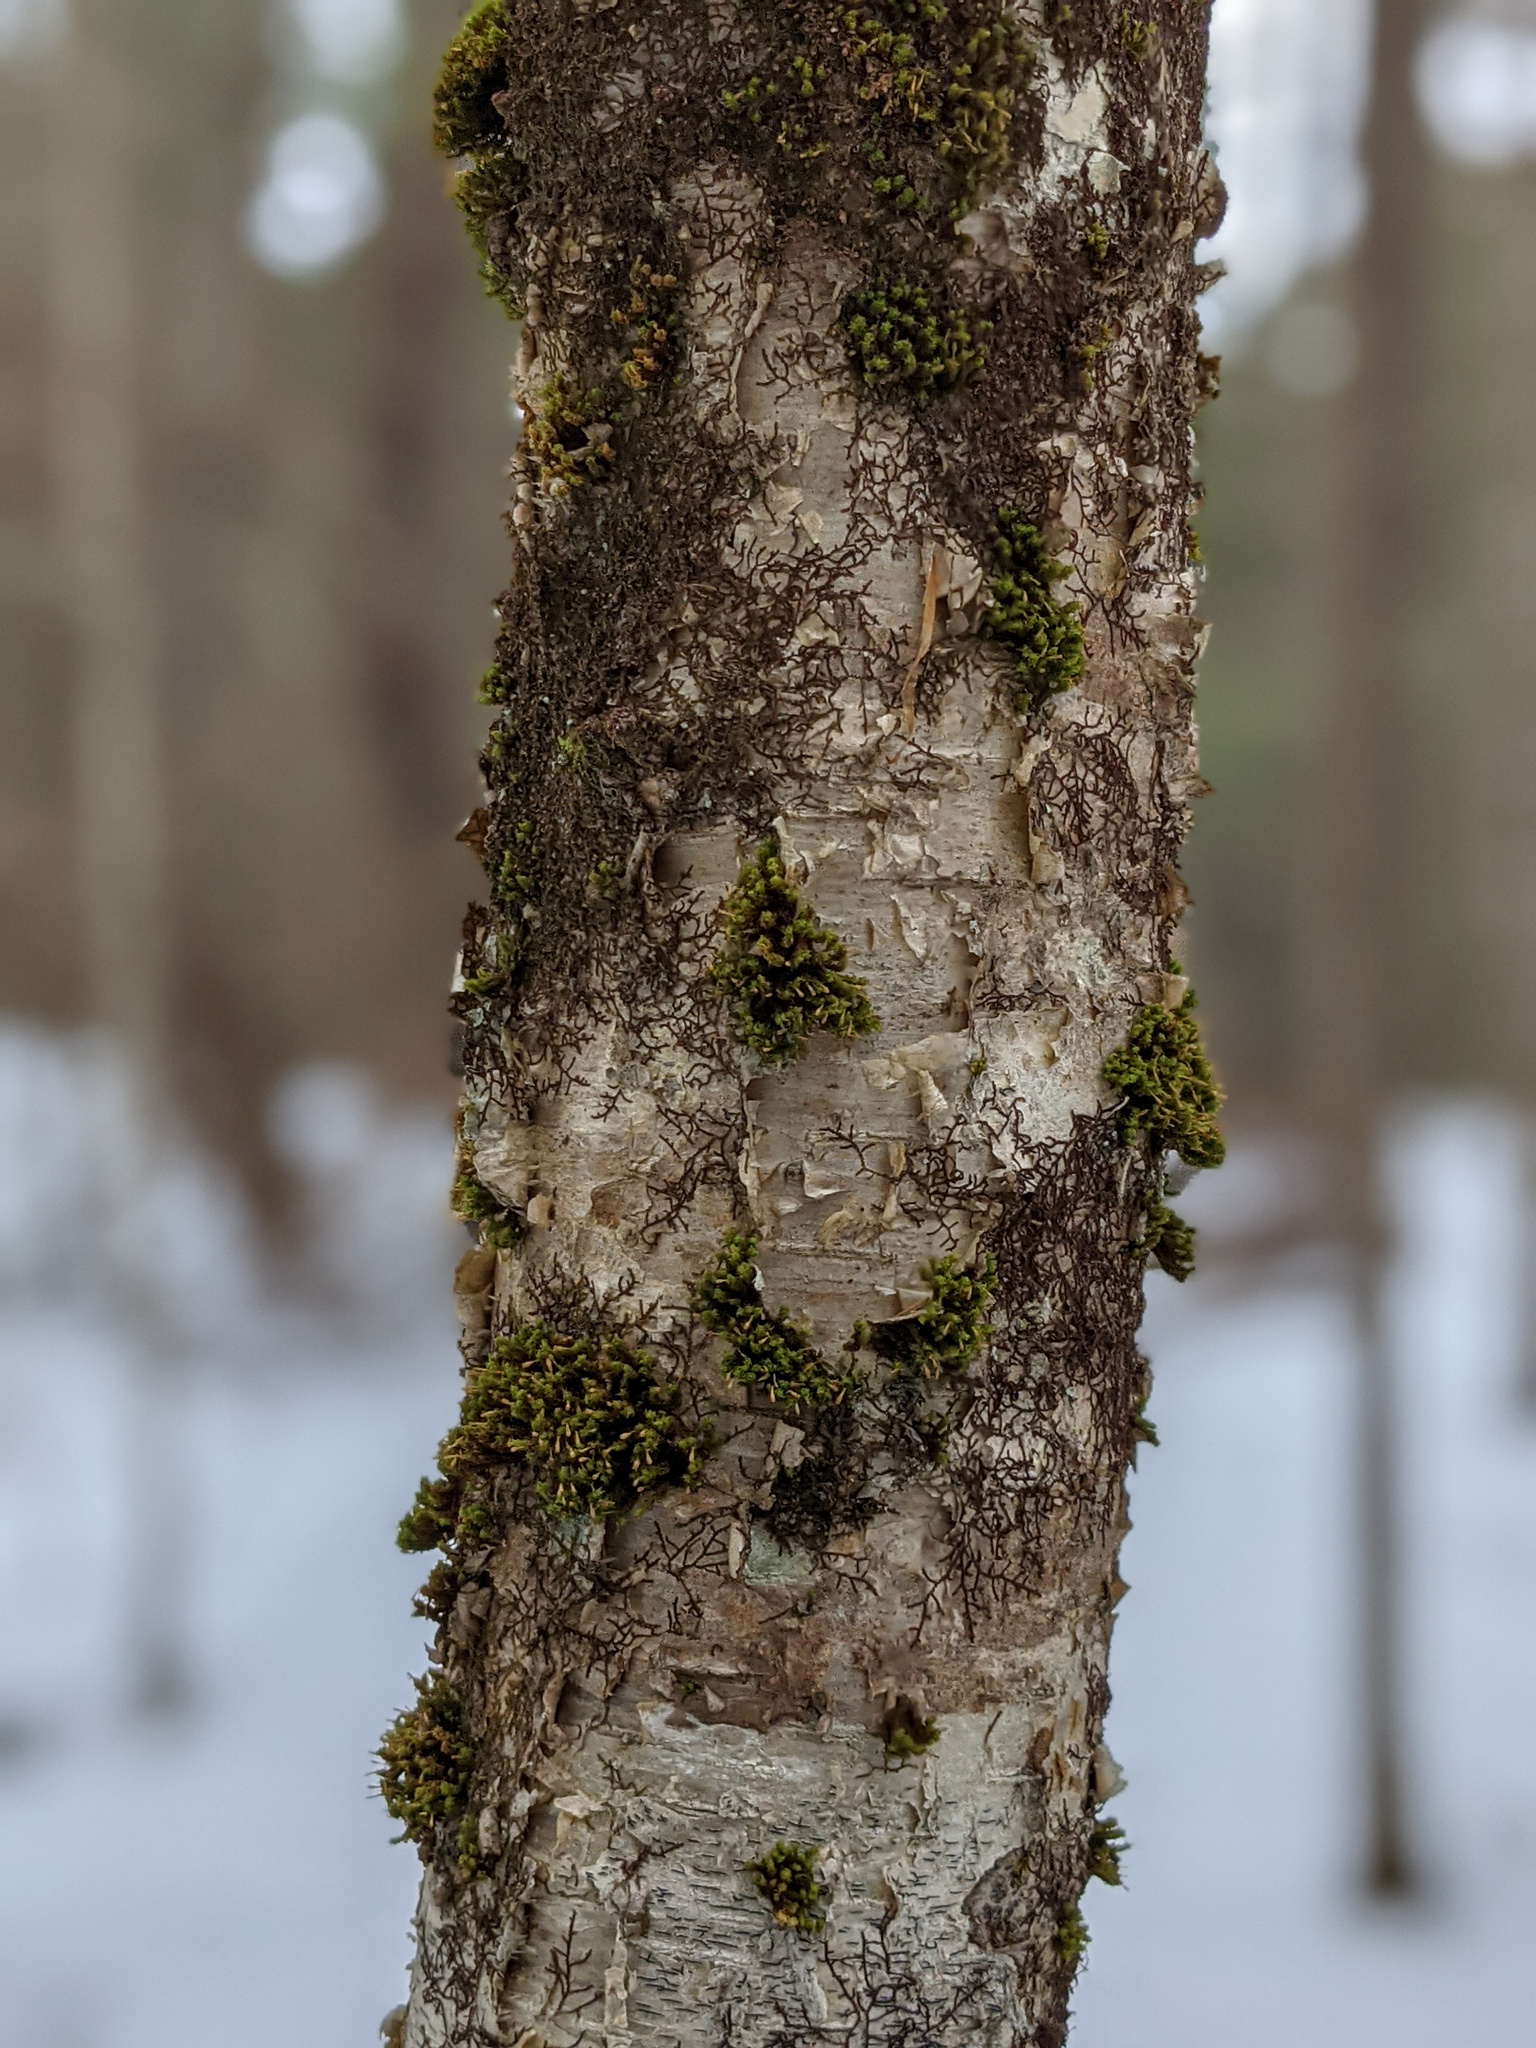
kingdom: Plantae
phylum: Bryophyta
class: Bryopsida
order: Orthotrichales
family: Orthotrichaceae
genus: Ulota
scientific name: Ulota crispa
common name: Crisped pincushion moss
